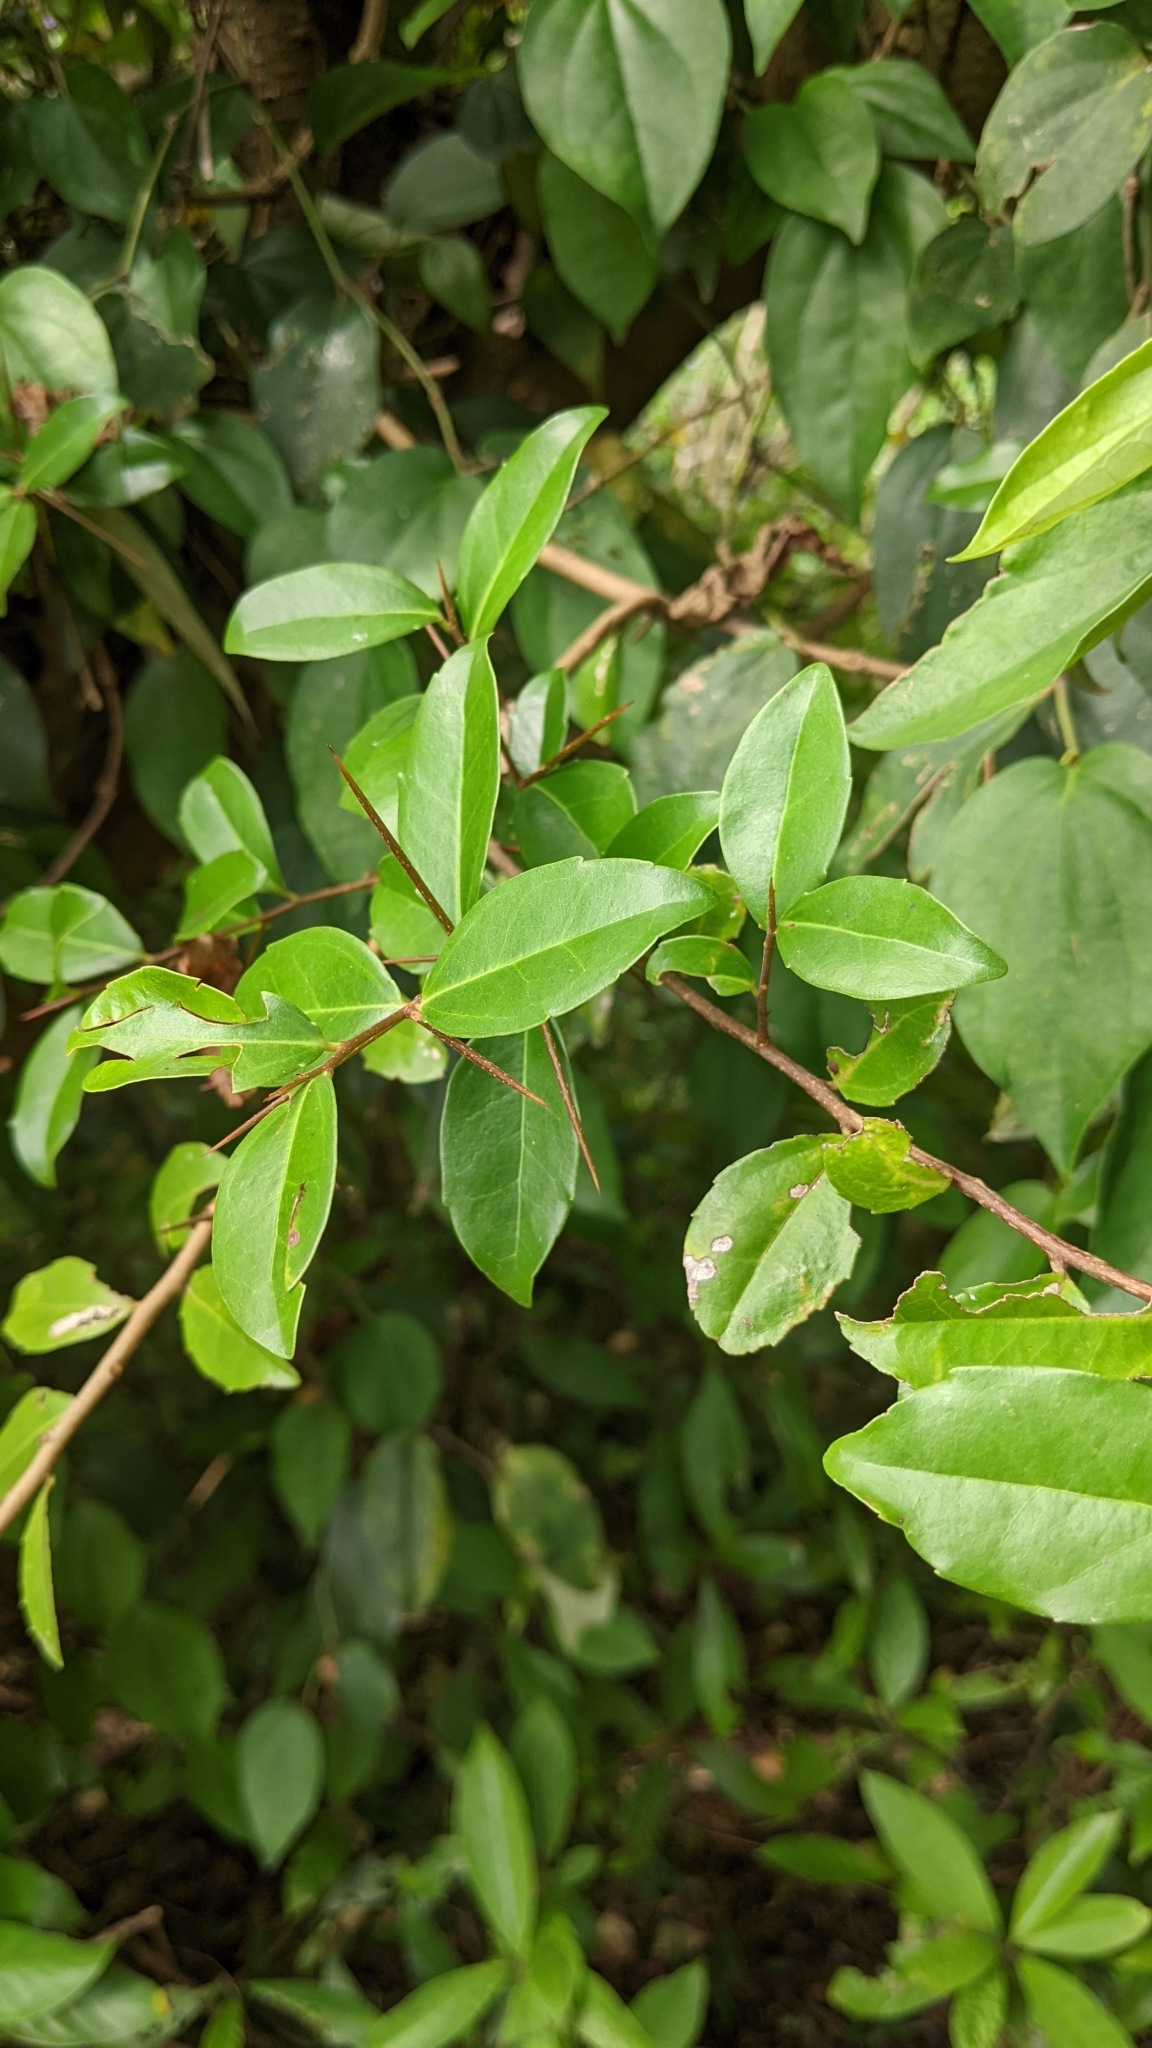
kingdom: Plantae
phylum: Tracheophyta
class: Magnoliopsida
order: Malpighiales
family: Salicaceae
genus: Scolopia
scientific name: Scolopia oldhamii
